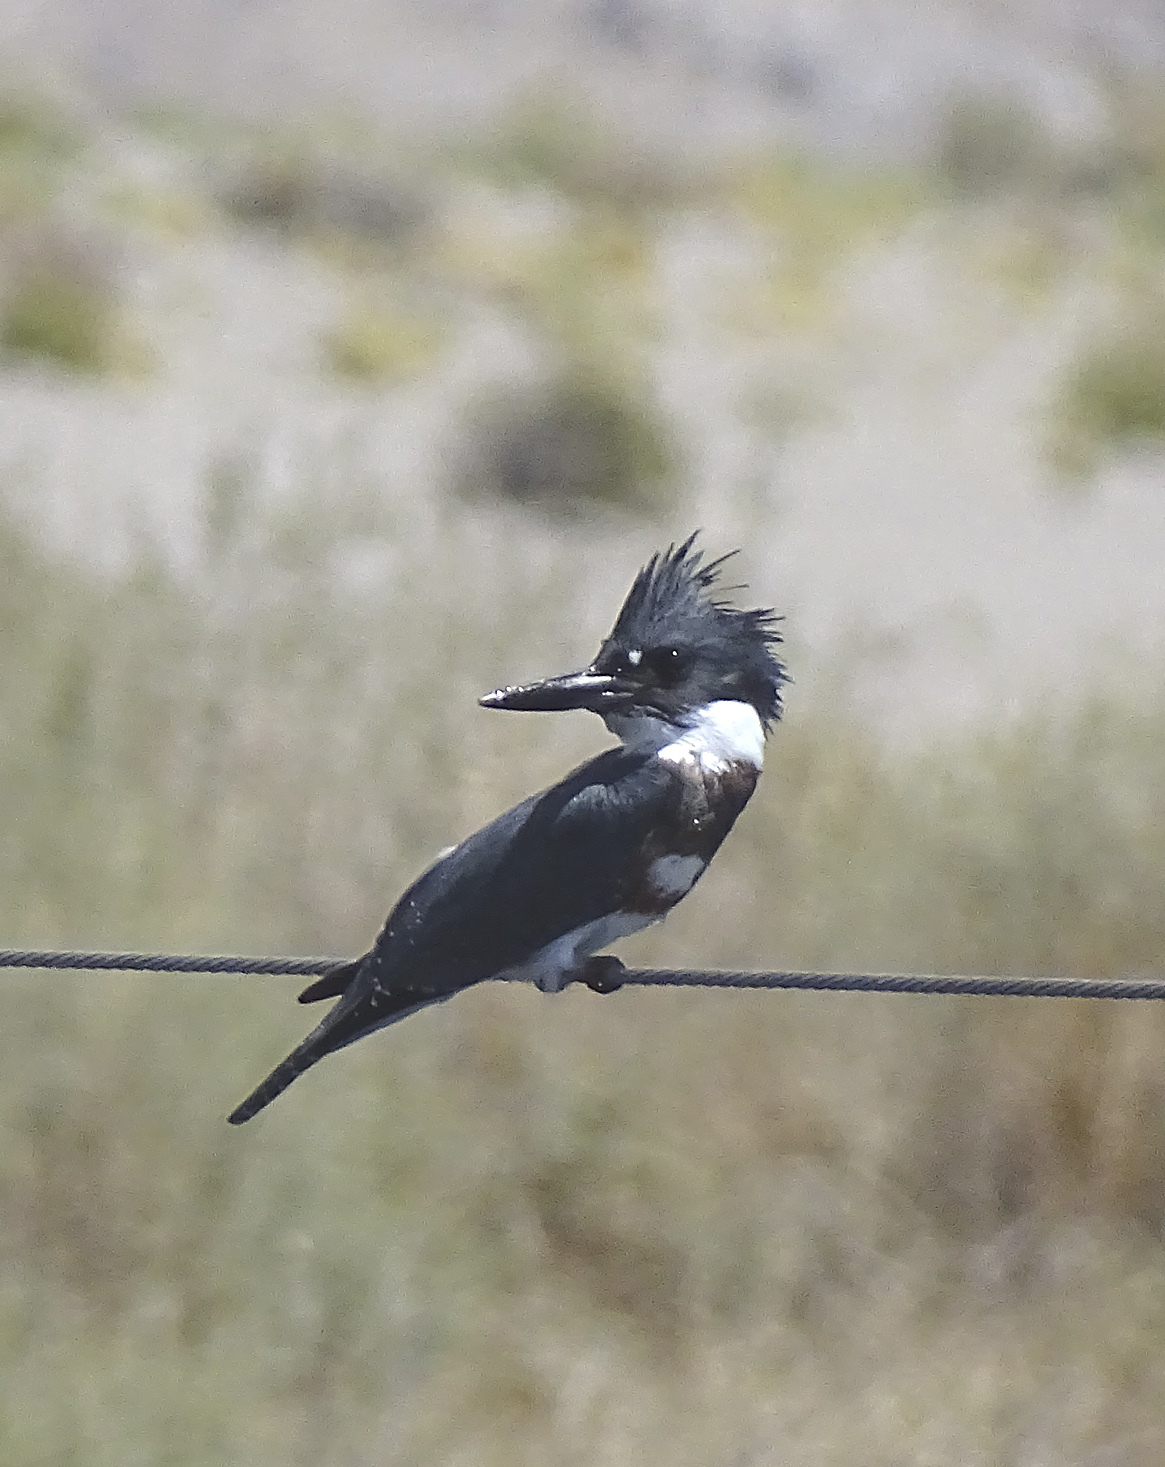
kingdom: Animalia
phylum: Chordata
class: Aves
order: Coraciiformes
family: Alcedinidae
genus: Megaceryle
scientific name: Megaceryle alcyon
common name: Belted kingfisher
